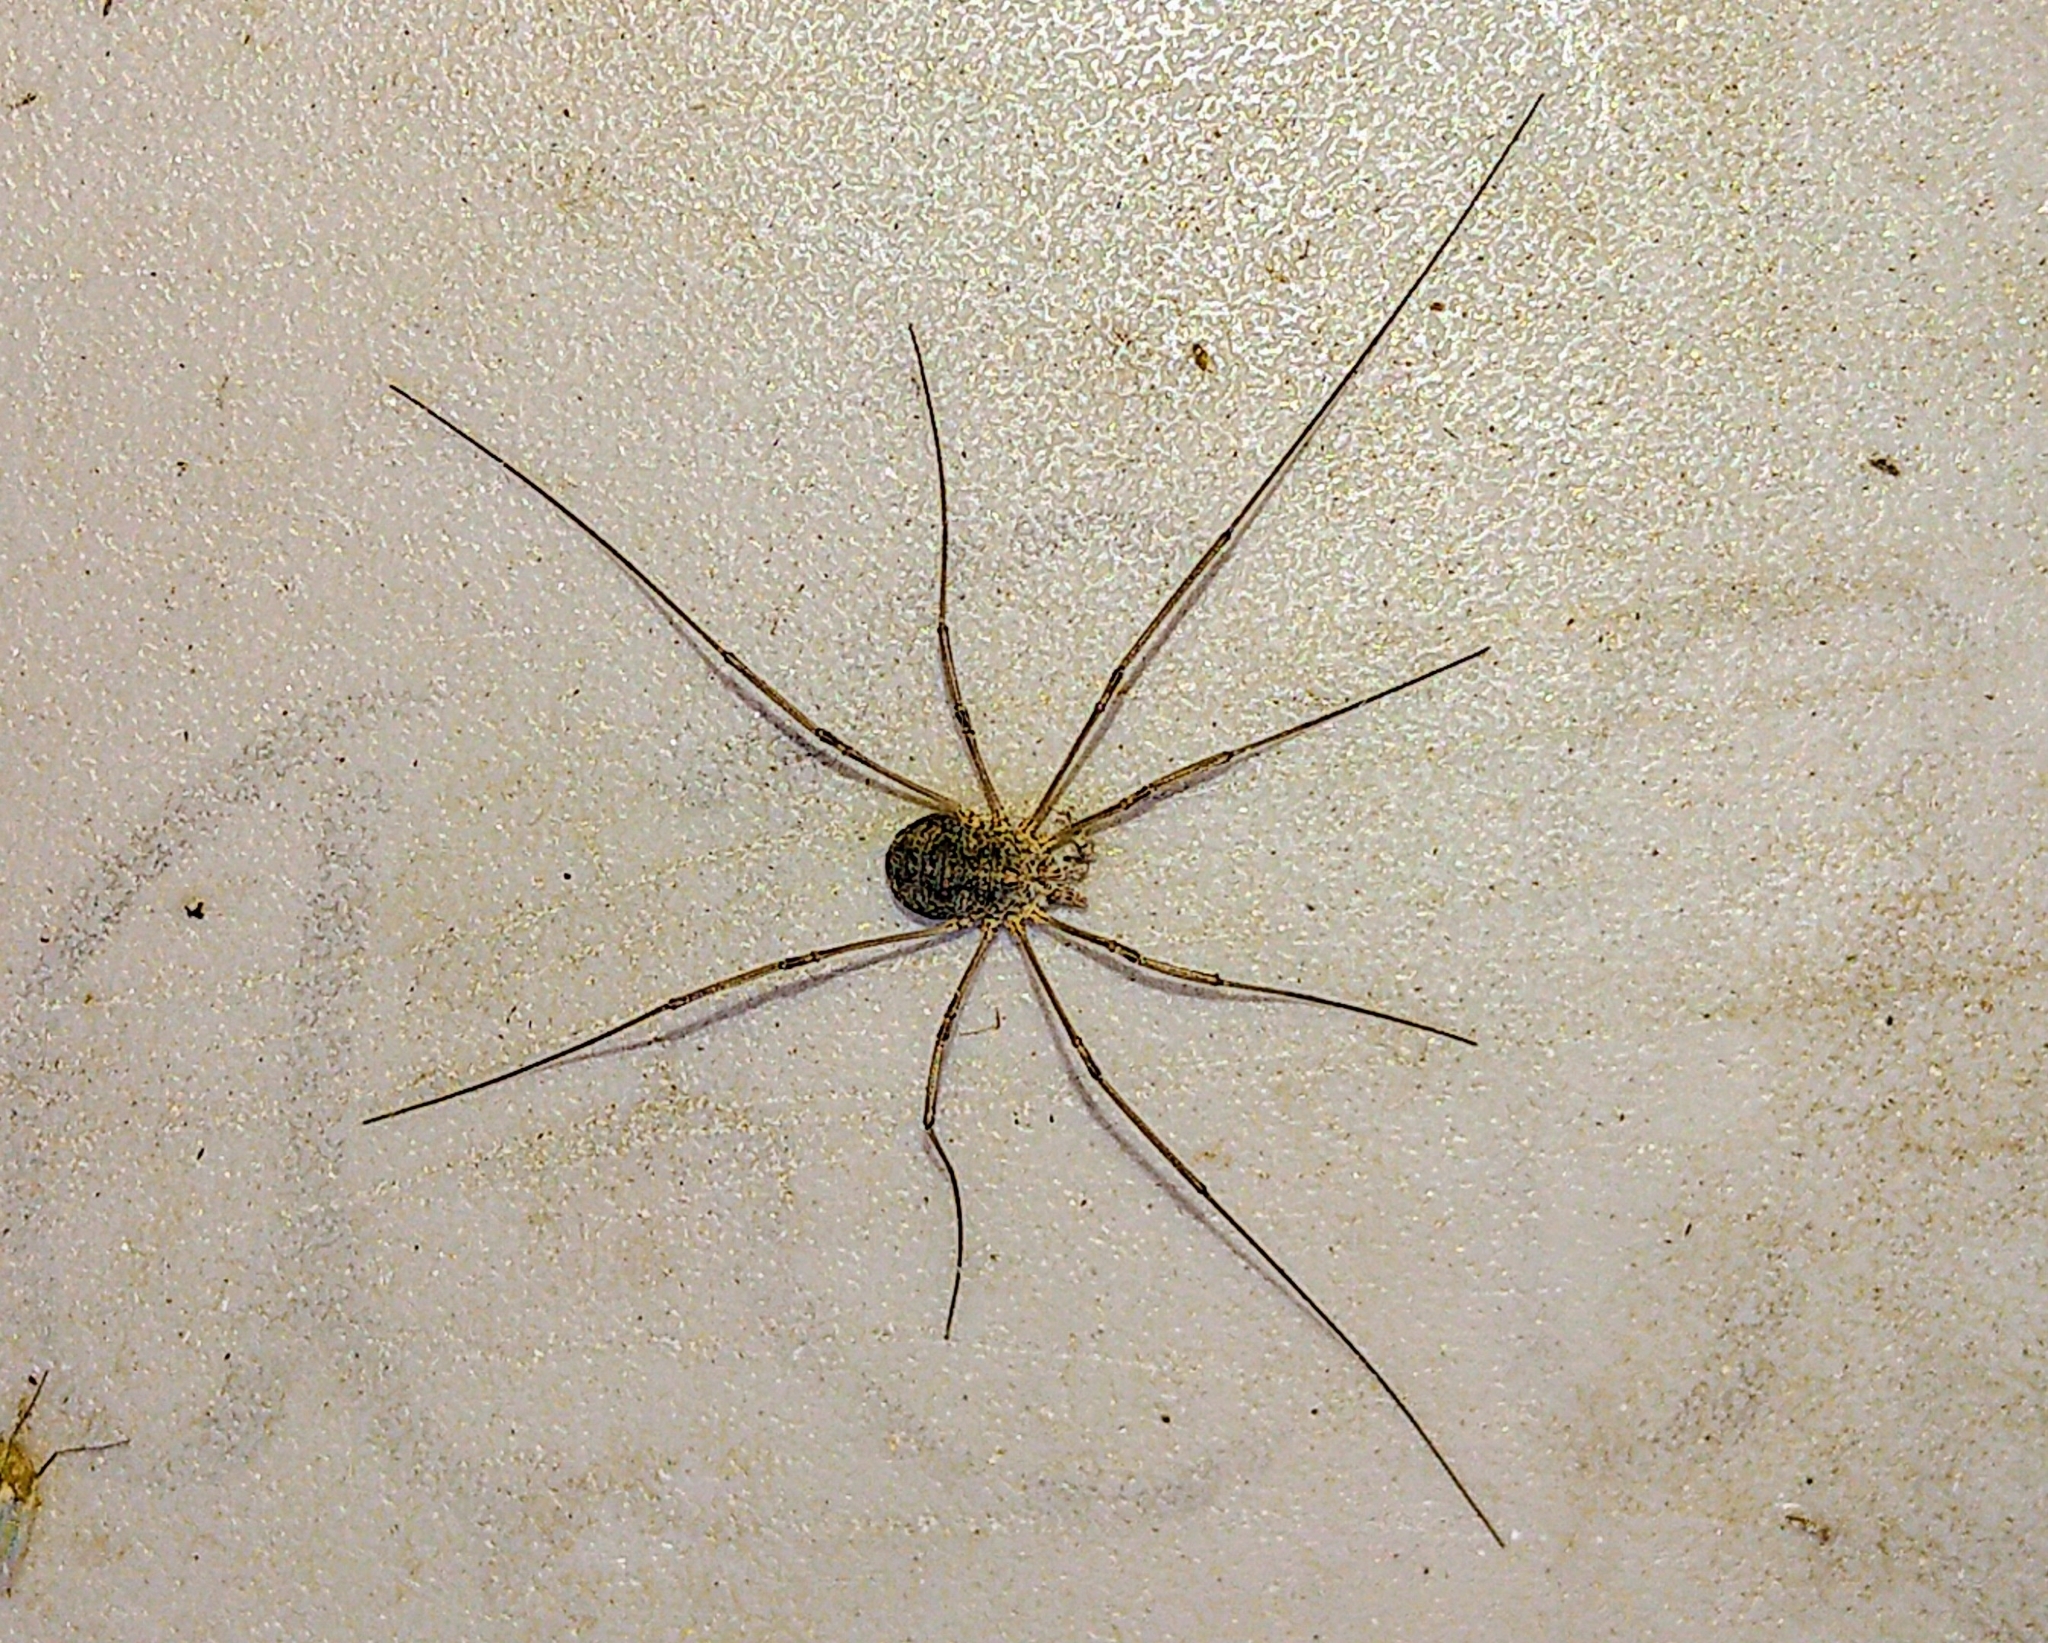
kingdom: Animalia
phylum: Arthropoda
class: Arachnida
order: Opiliones
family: Phalangiidae
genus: Phalangium
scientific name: Phalangium opilio
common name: Daddy longleg
